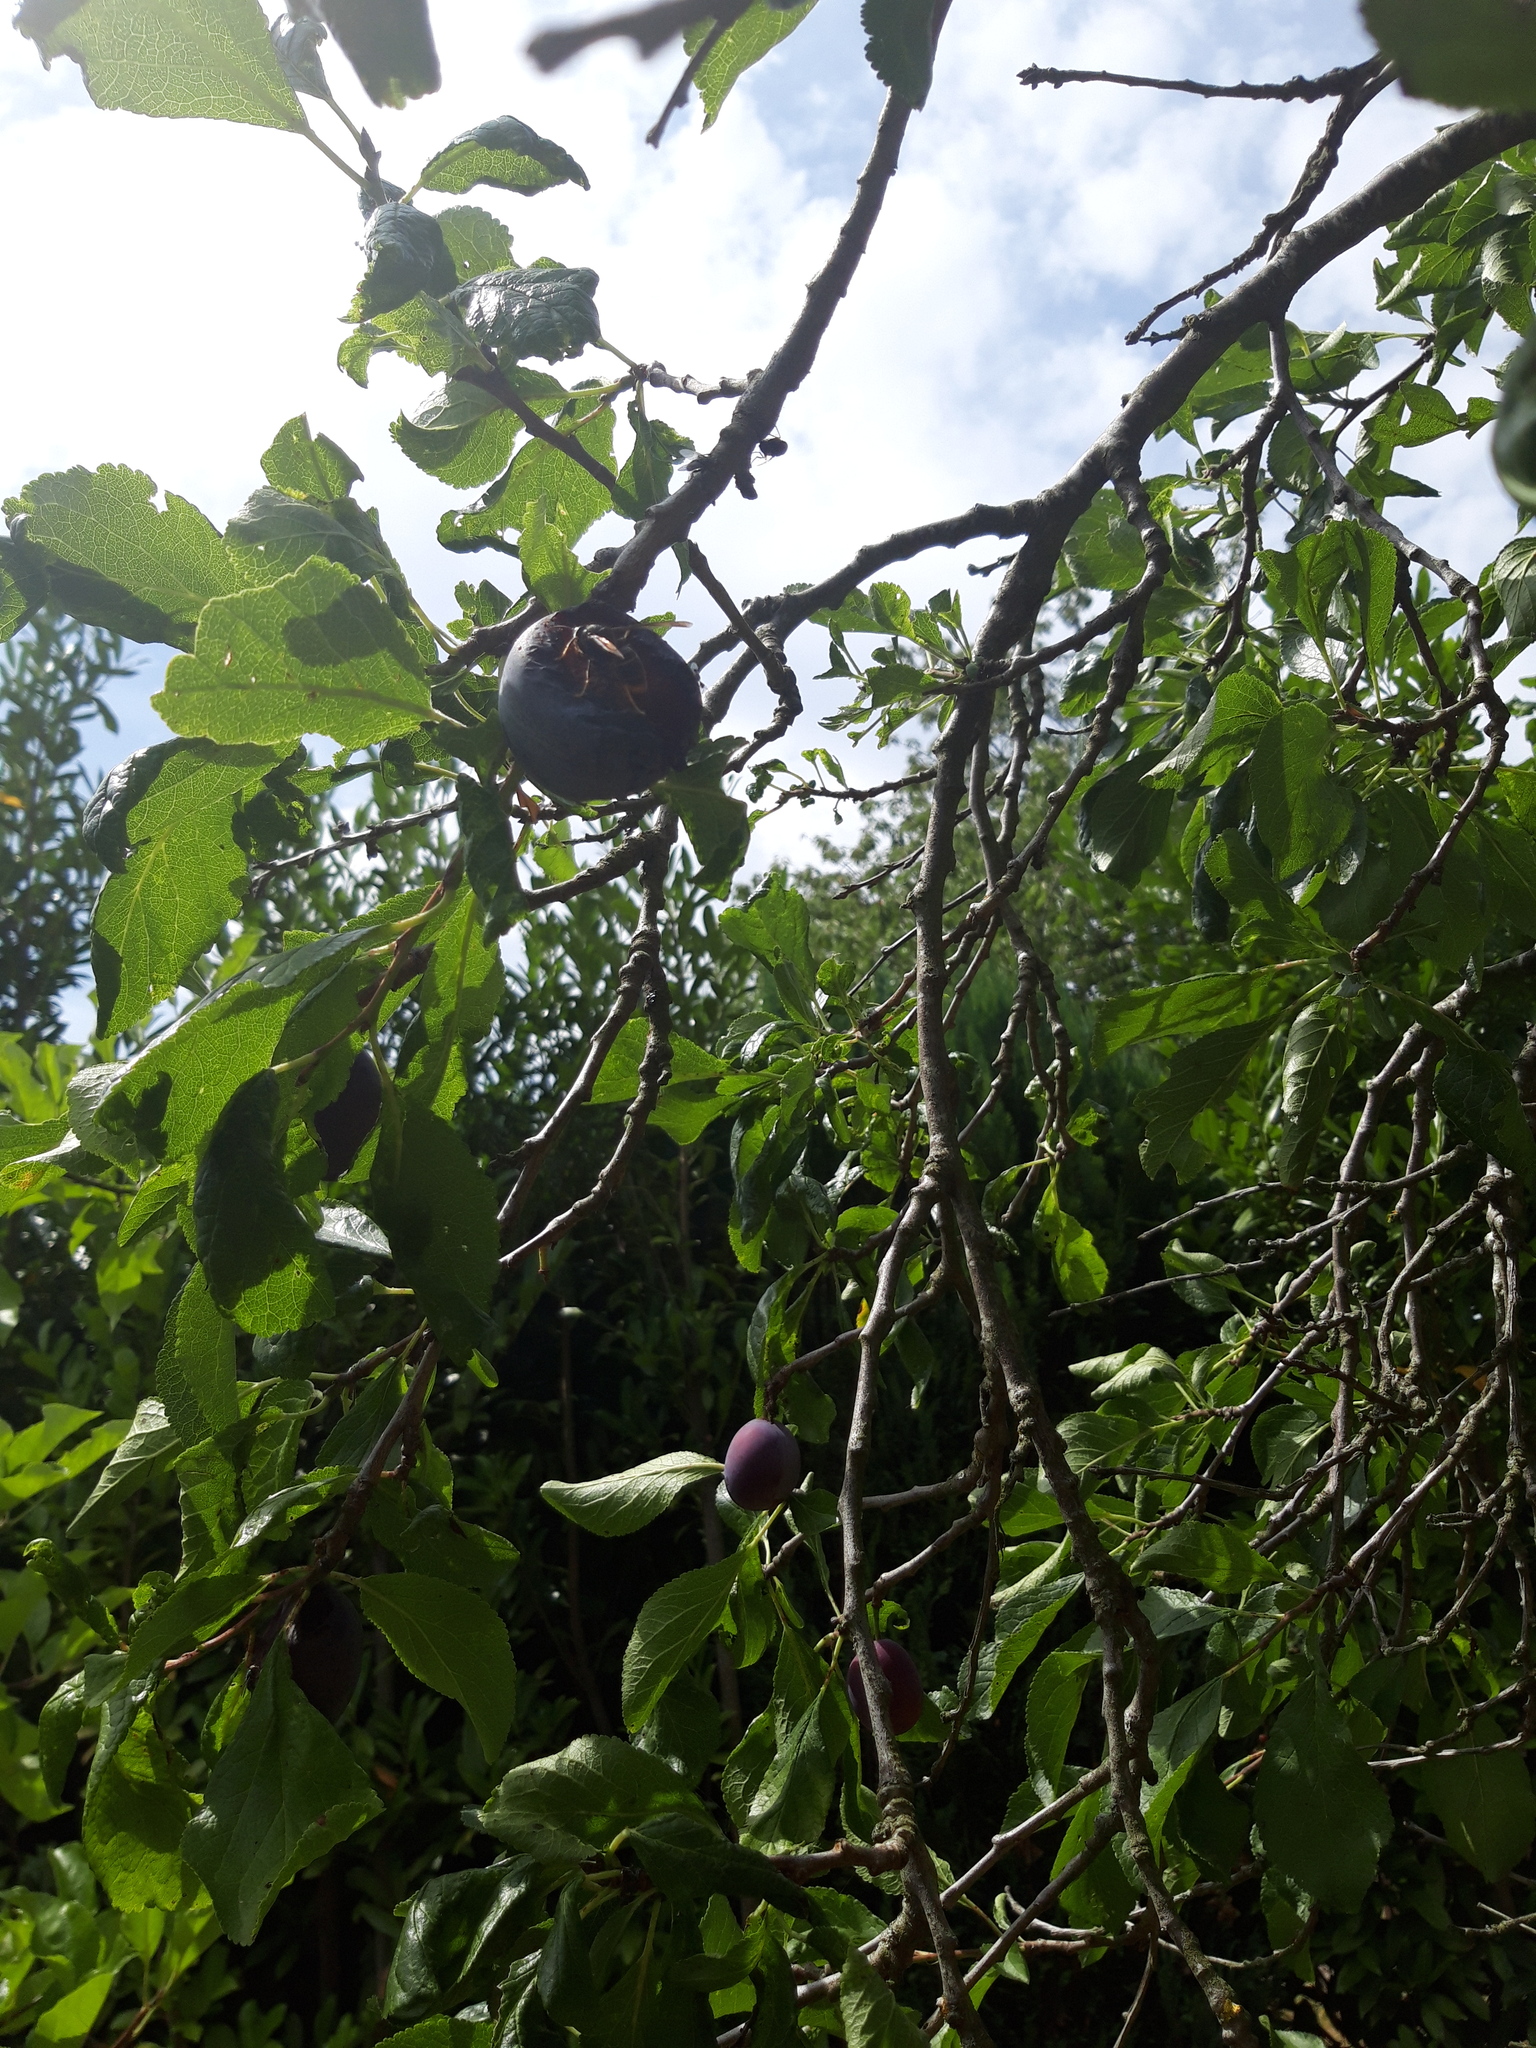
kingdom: Animalia
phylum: Arthropoda
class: Insecta
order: Hymenoptera
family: Vespidae
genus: Vespa
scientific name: Vespa velutina
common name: Asian hornet
